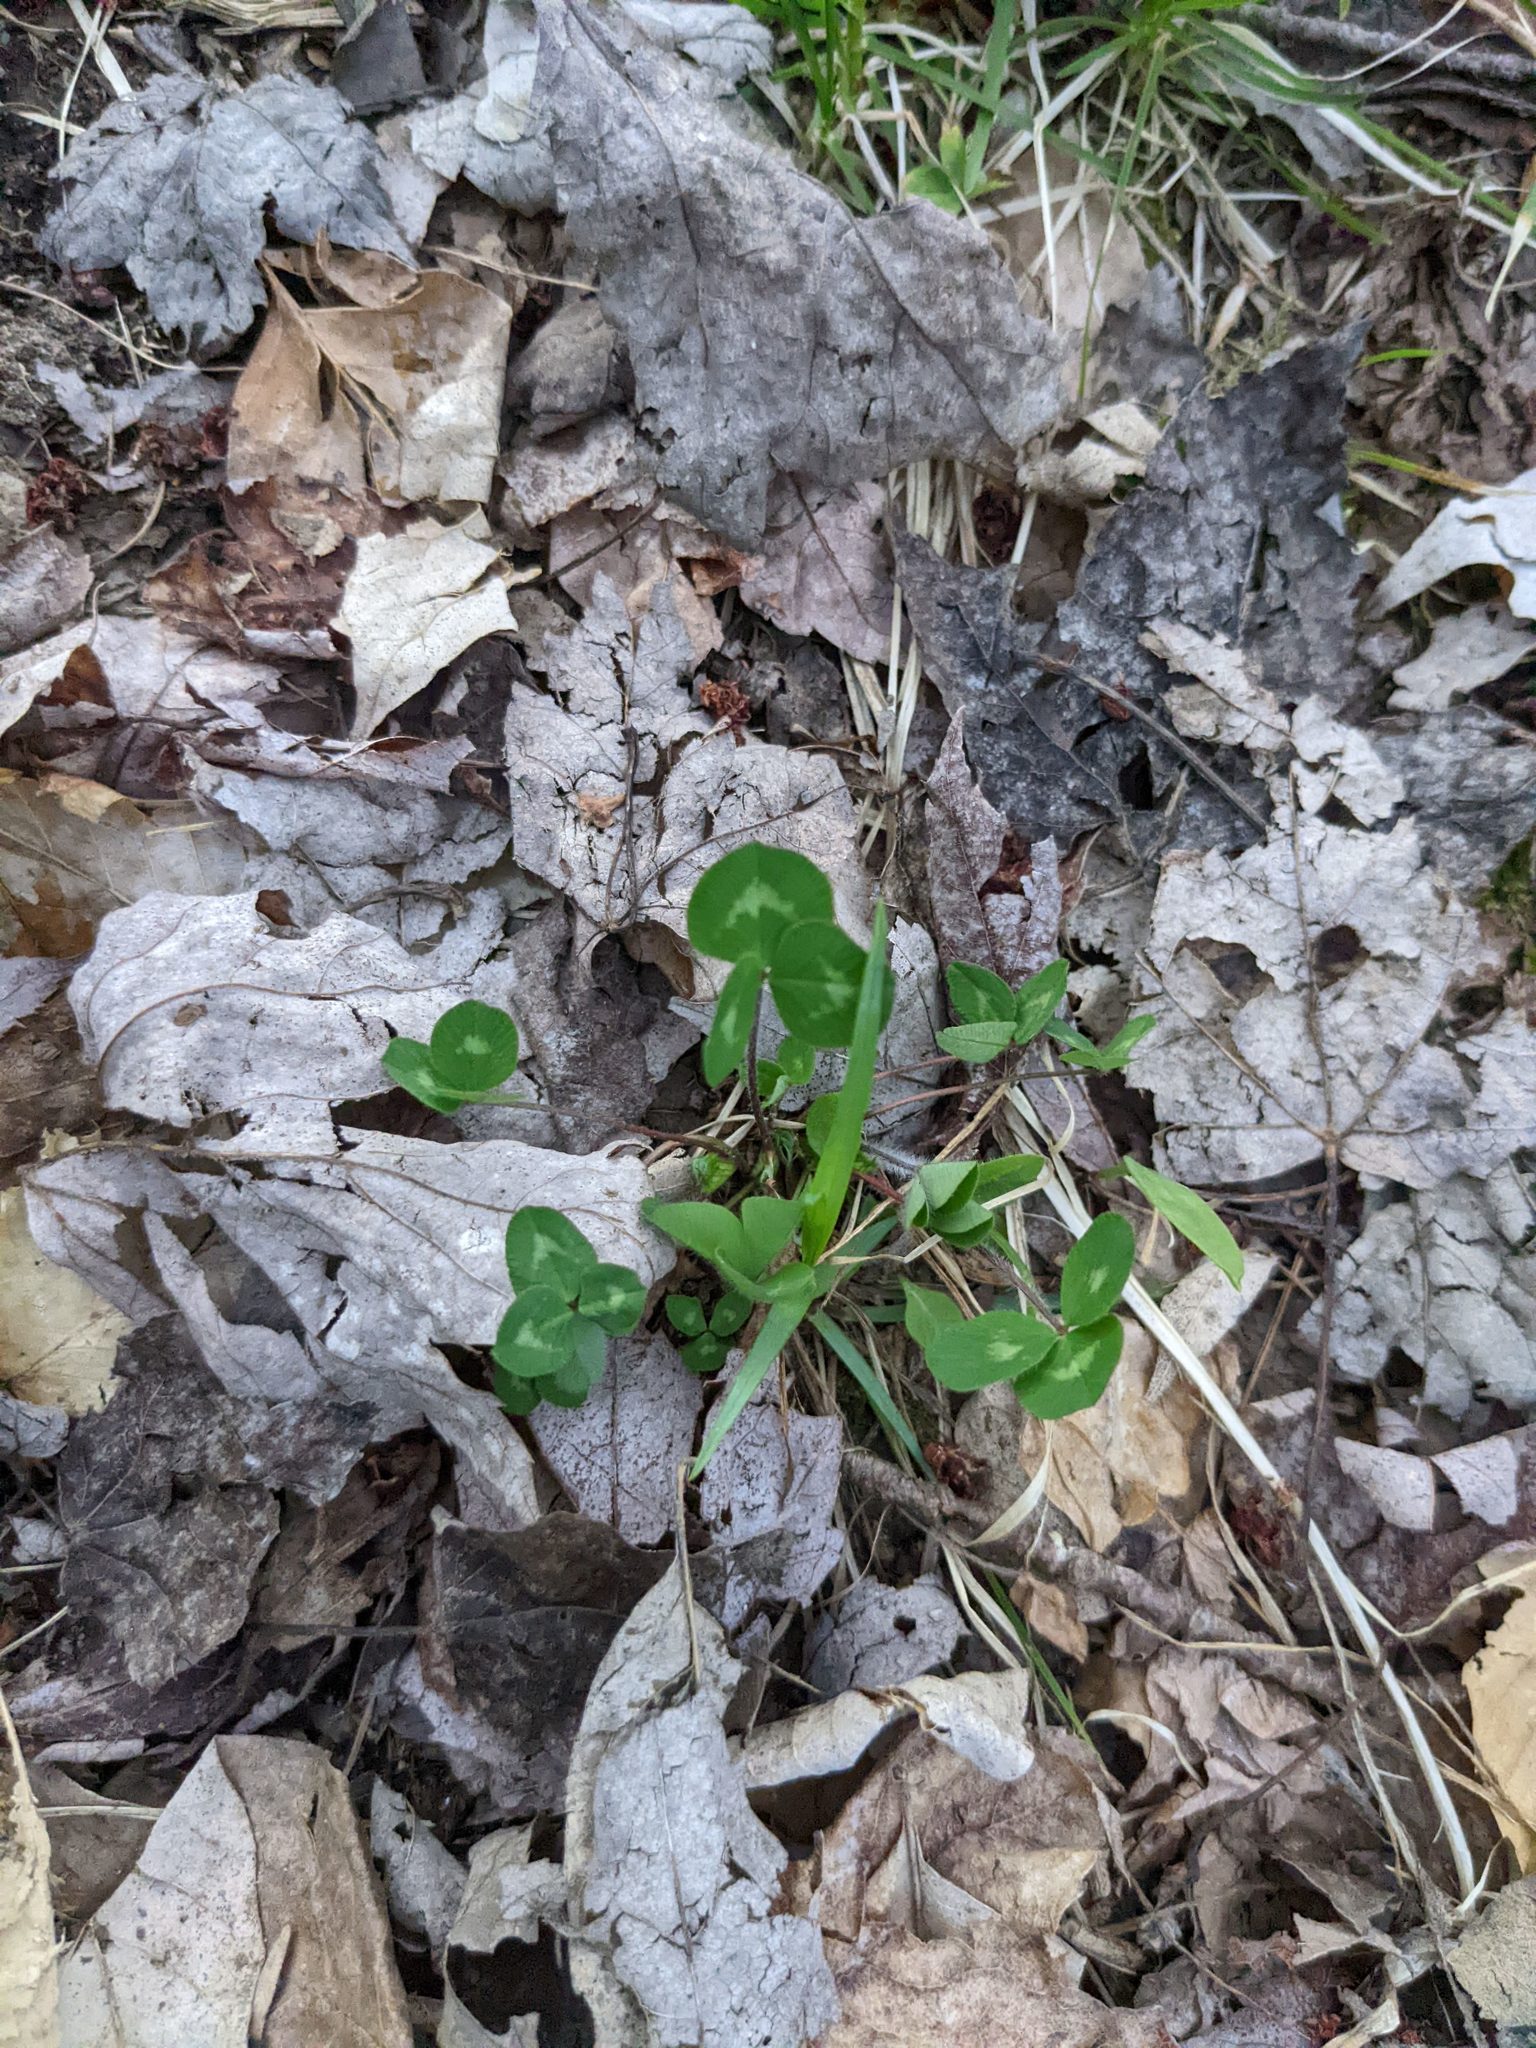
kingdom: Plantae
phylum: Tracheophyta
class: Magnoliopsida
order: Fabales
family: Fabaceae
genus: Trifolium
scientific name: Trifolium pratense
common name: Red clover
